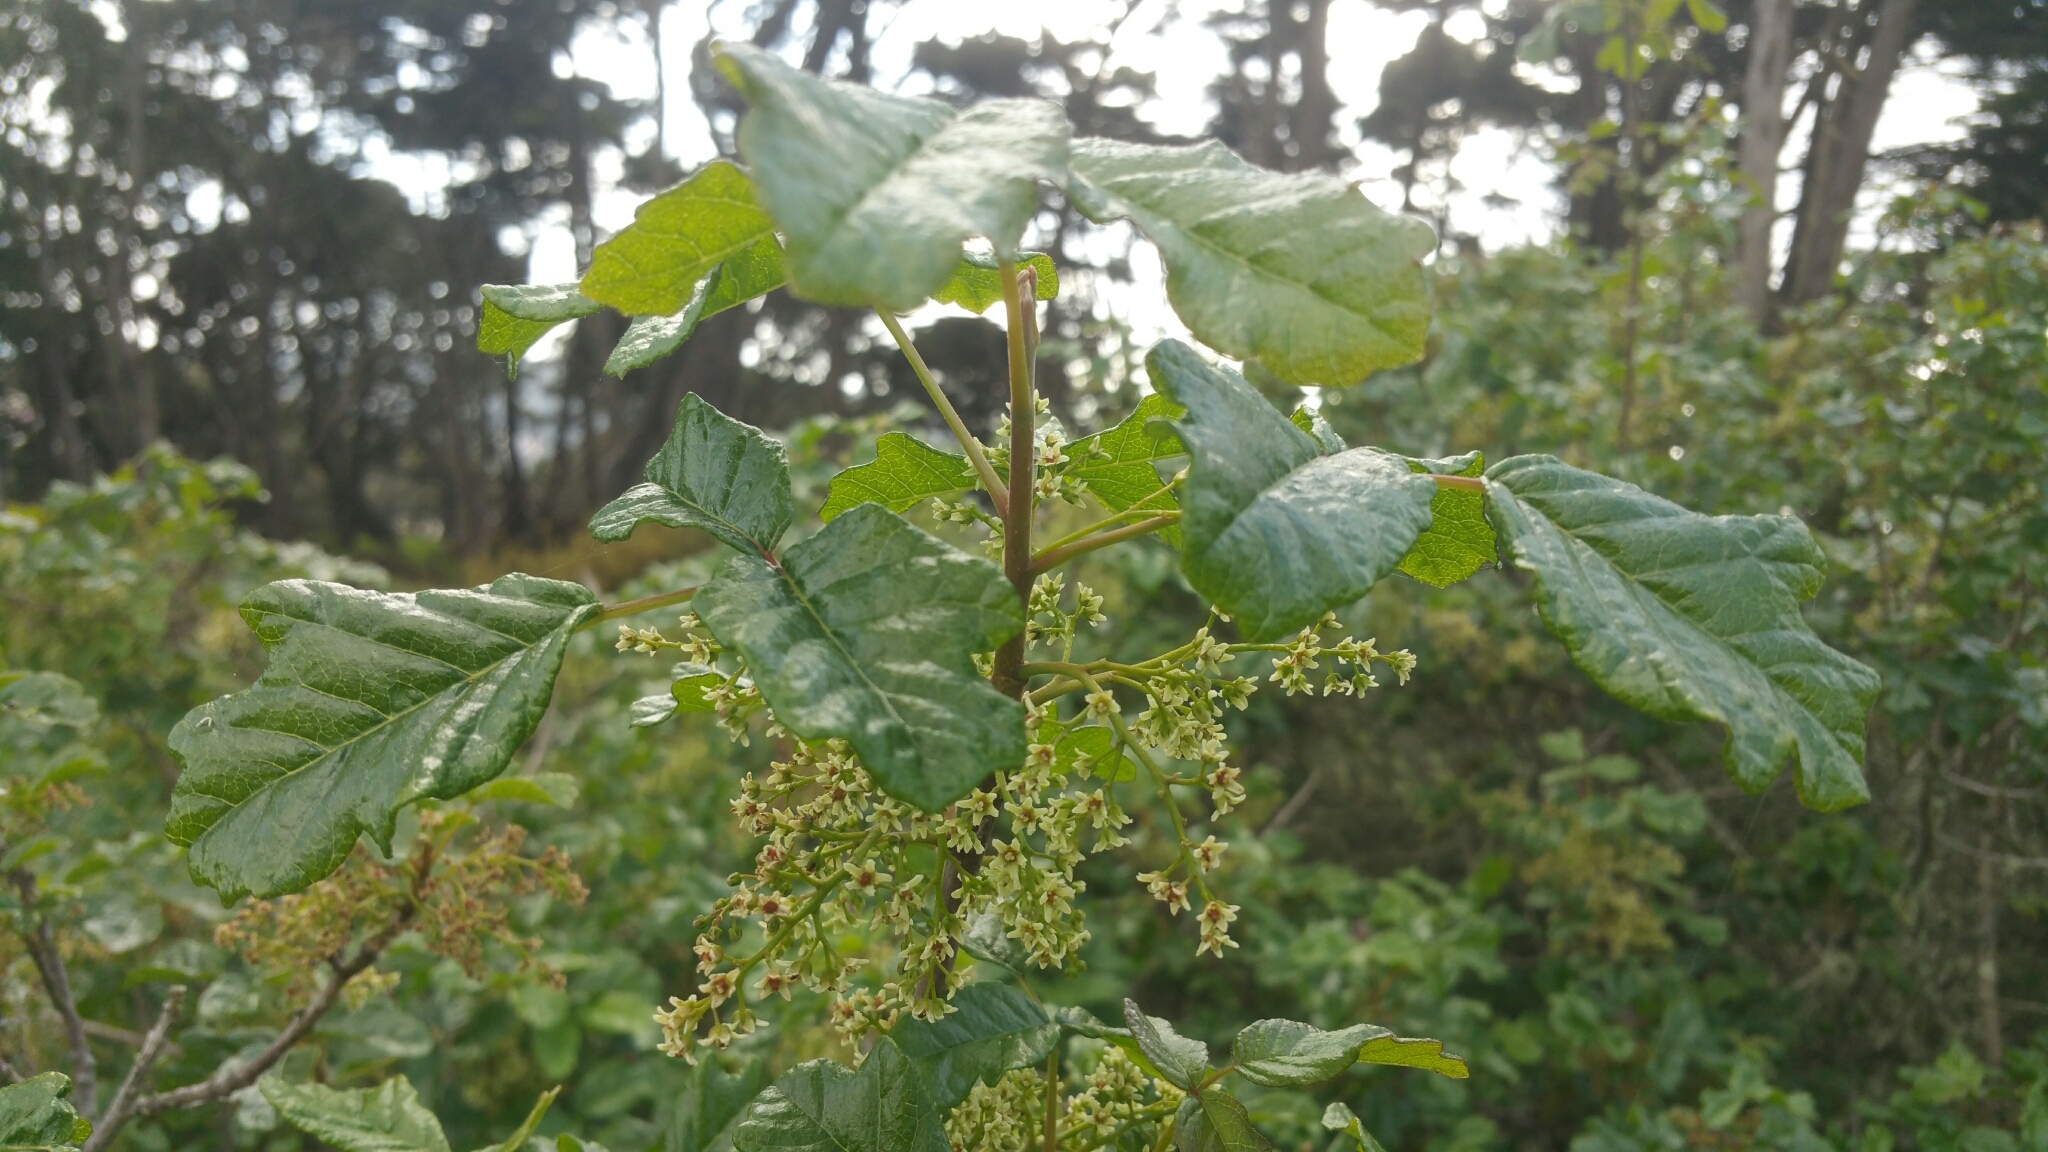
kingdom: Plantae
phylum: Tracheophyta
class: Magnoliopsida
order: Sapindales
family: Anacardiaceae
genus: Toxicodendron
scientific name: Toxicodendron diversilobum
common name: Pacific poison-oak
